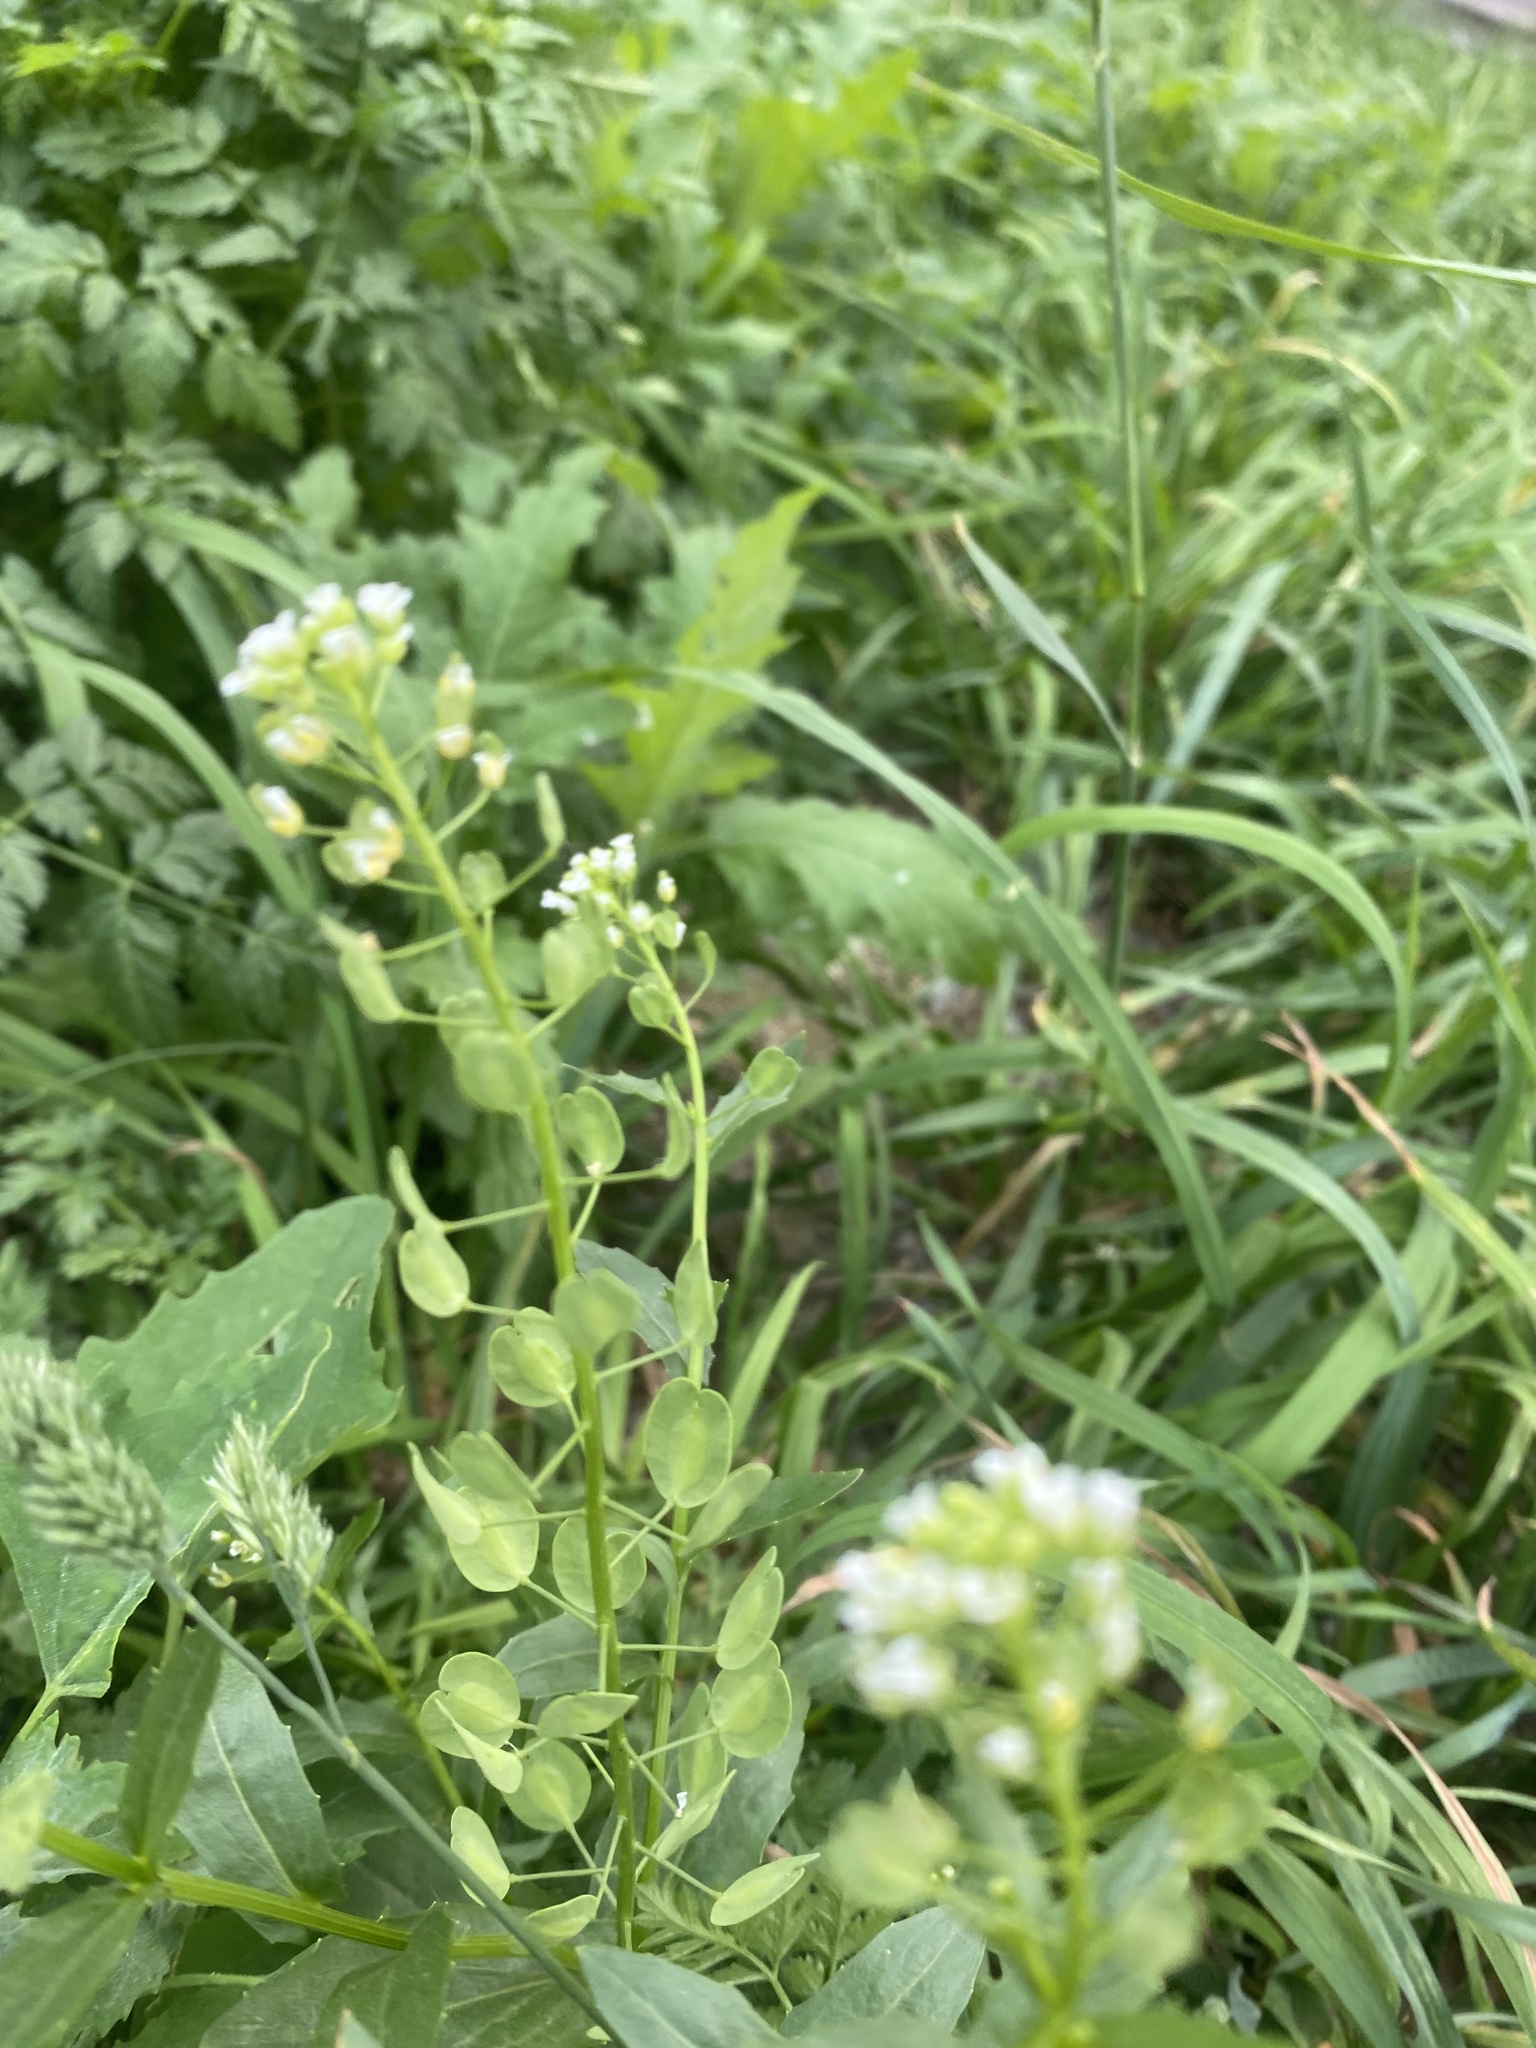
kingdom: Plantae
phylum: Tracheophyta
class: Magnoliopsida
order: Brassicales
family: Brassicaceae
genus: Thlaspi
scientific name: Thlaspi arvense
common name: Field pennycress
